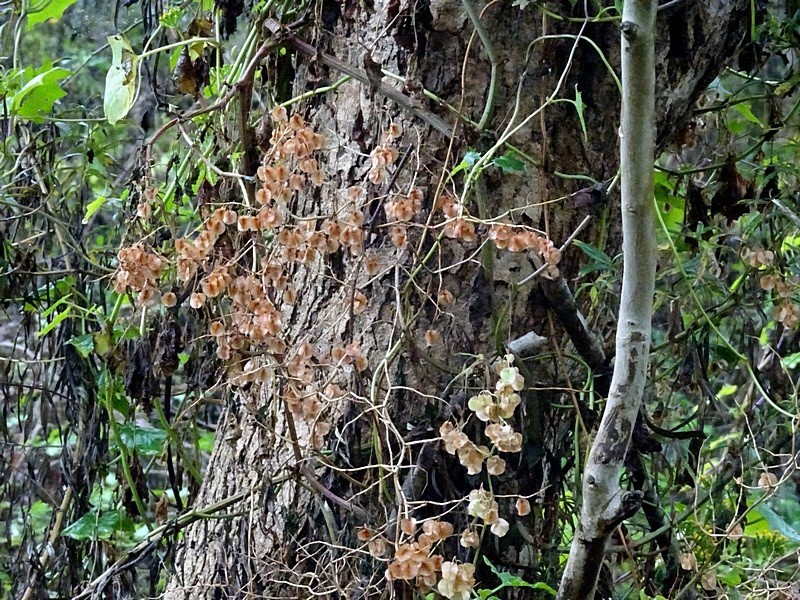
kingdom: Plantae
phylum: Tracheophyta
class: Magnoliopsida
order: Caryophyllales
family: Polygonaceae
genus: Rumex
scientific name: Rumex sagittatus
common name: Climbing dock
